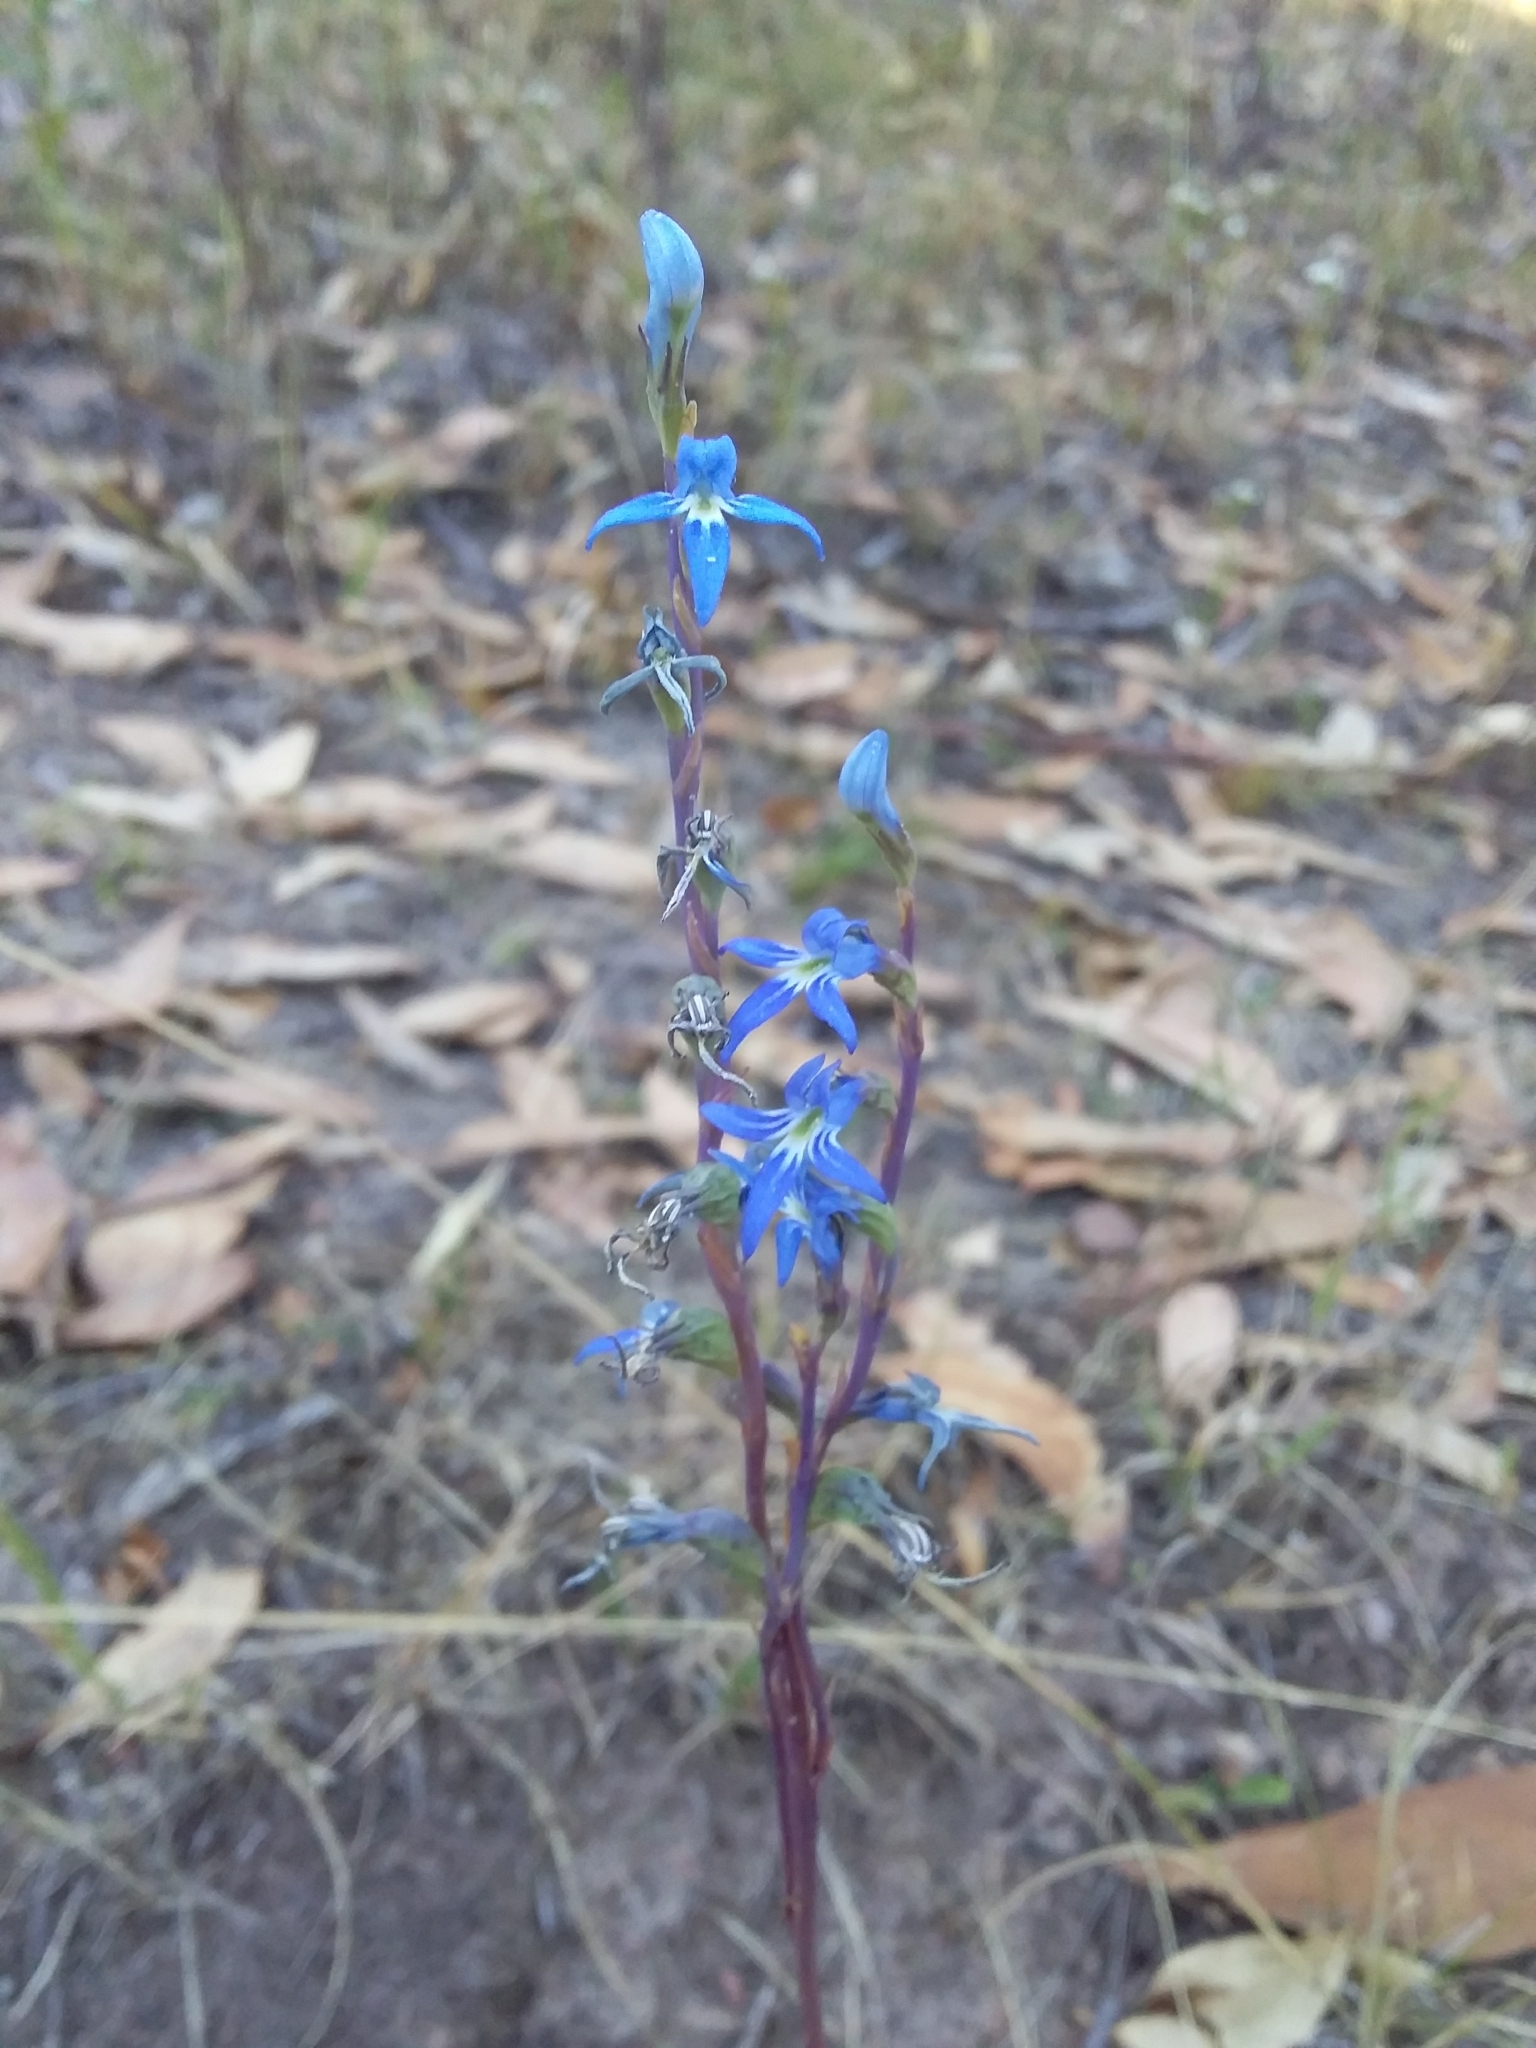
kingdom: Plantae
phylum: Tracheophyta
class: Magnoliopsida
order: Asterales
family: Campanulaceae
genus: Lobelia
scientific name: Lobelia gibbosa
